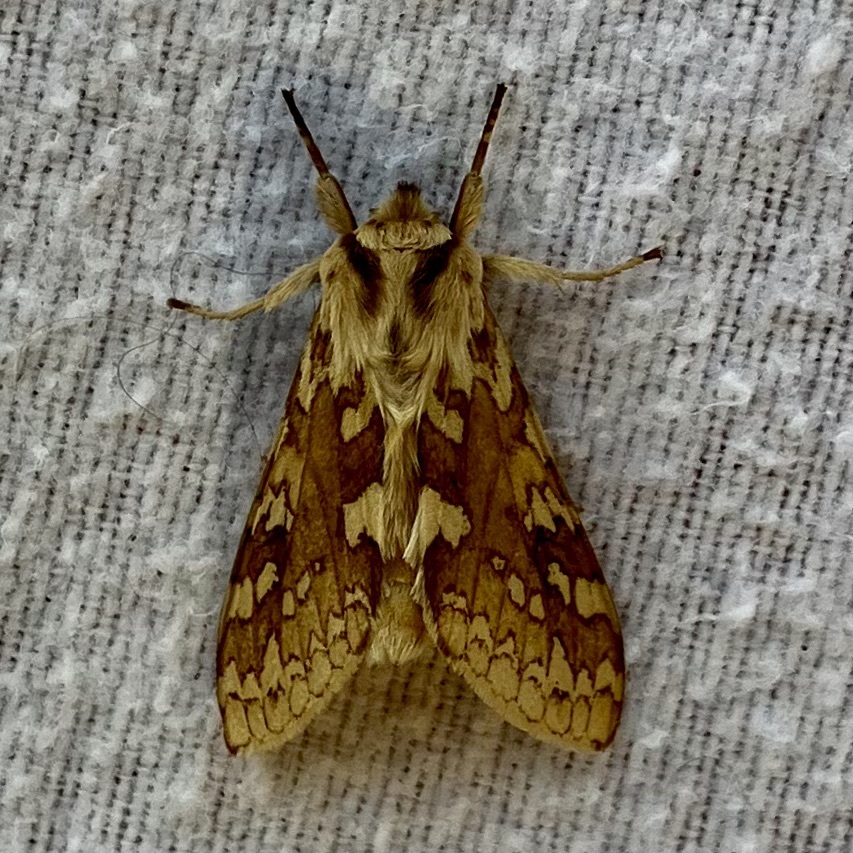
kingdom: Animalia
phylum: Arthropoda
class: Insecta
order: Lepidoptera
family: Erebidae
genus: Lophocampa
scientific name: Lophocampa maculata
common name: Spotted tussock moth
